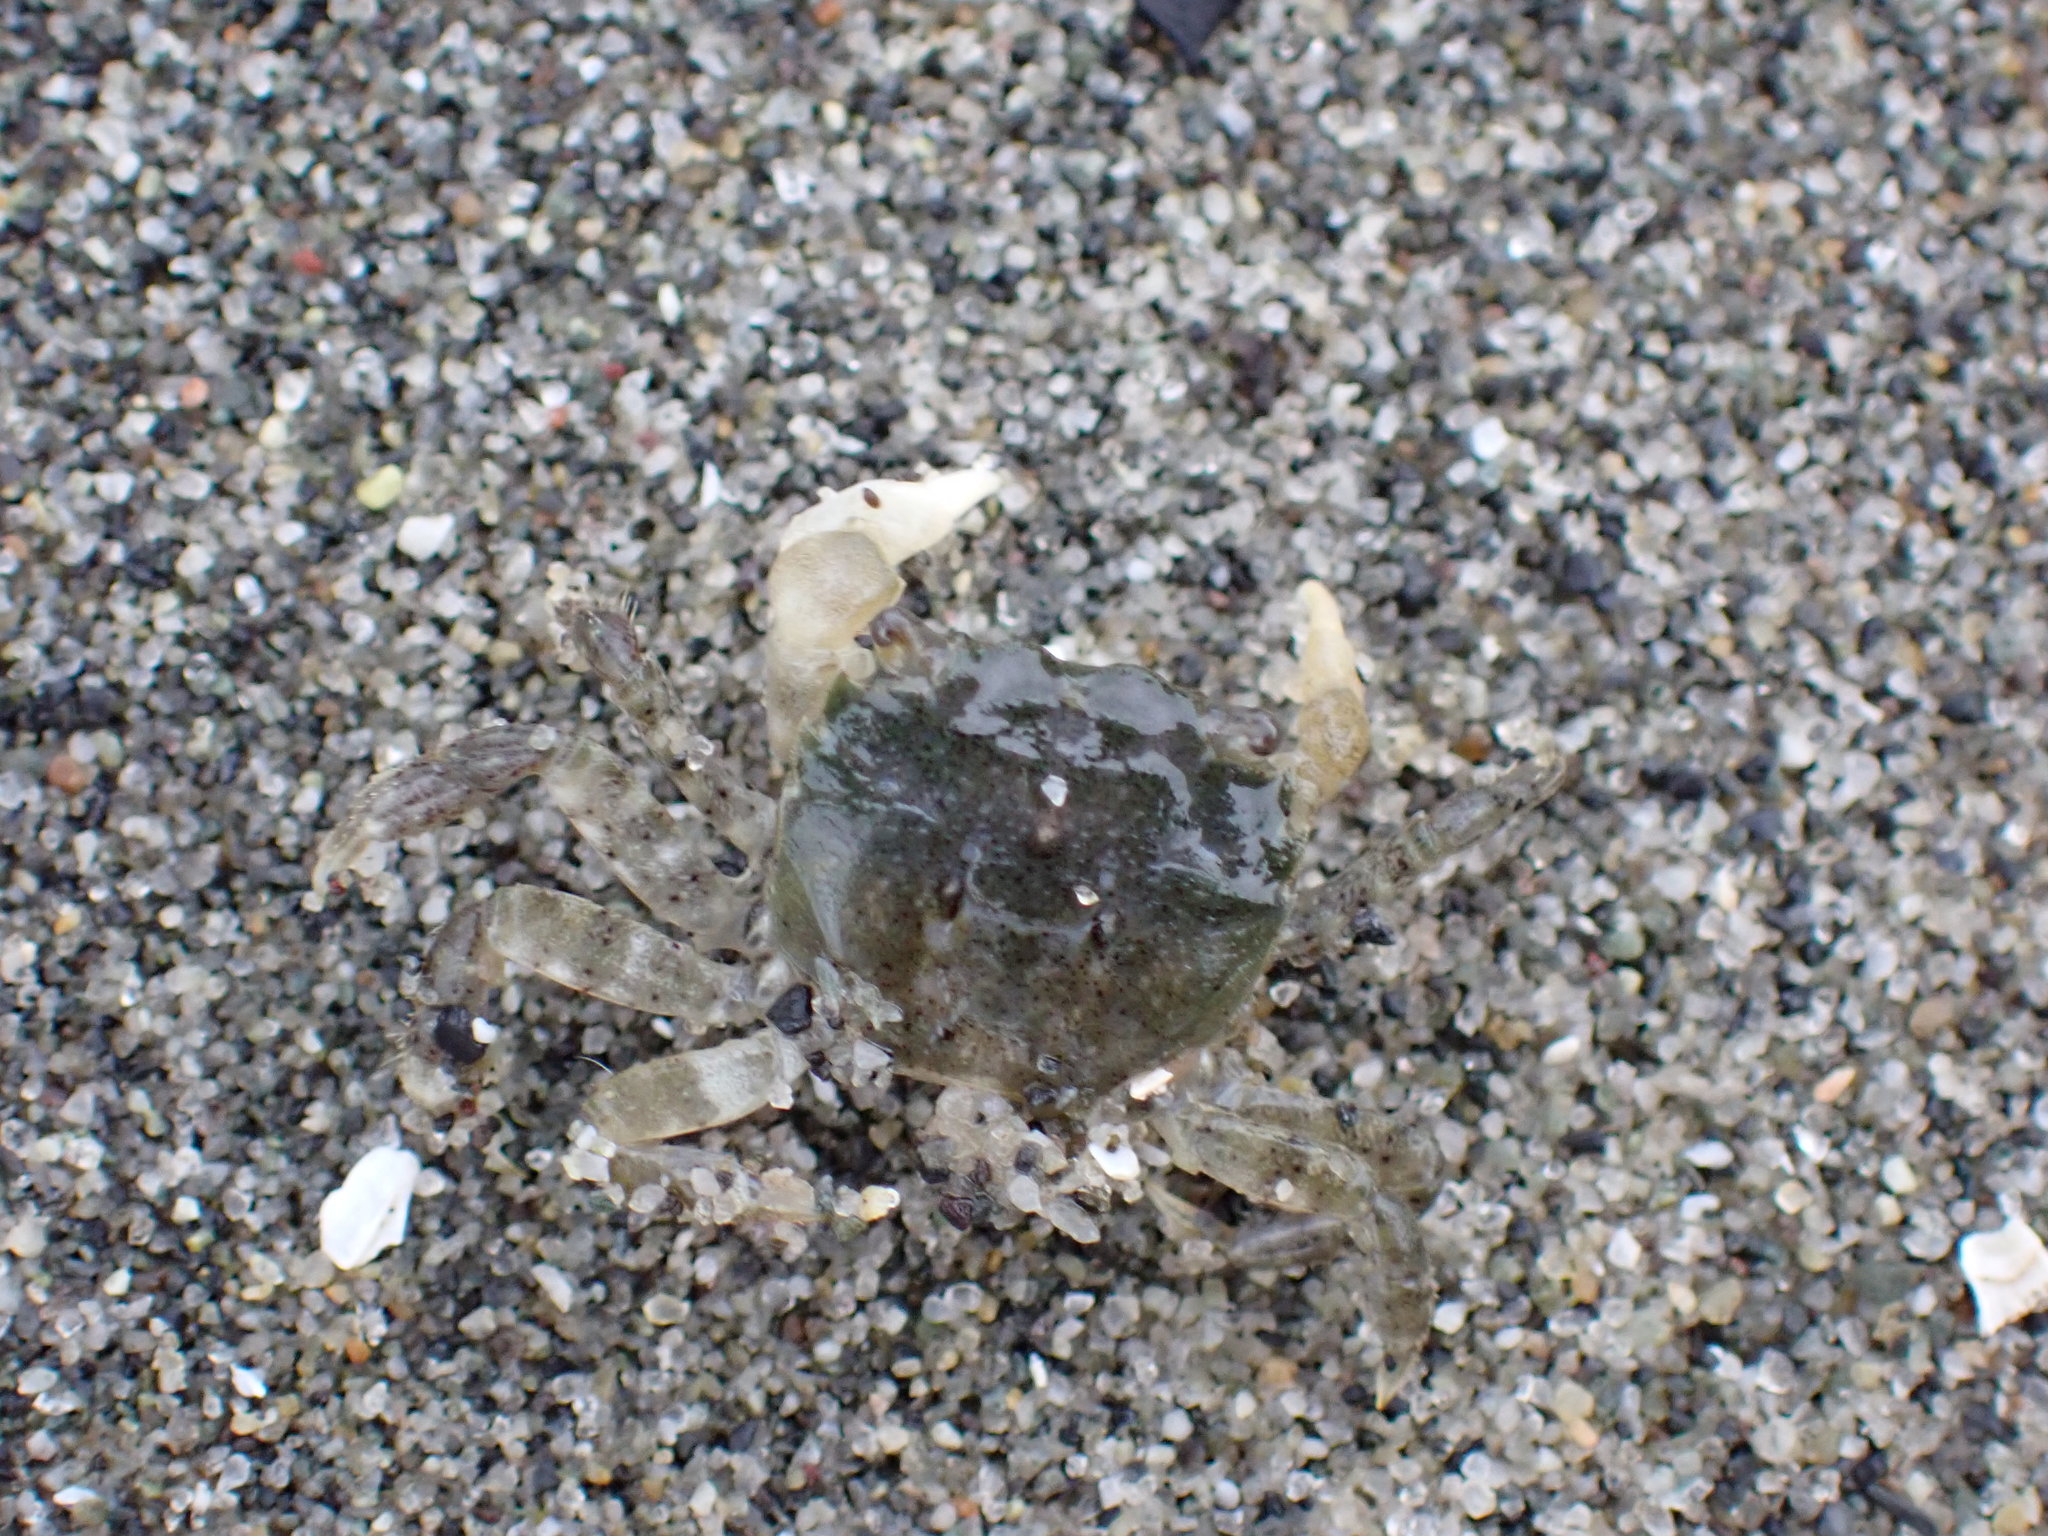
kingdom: Animalia
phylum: Arthropoda
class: Malacostraca
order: Decapoda
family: Varunidae
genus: Hemigrapsus
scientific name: Hemigrapsus oregonensis
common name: Yellow shore crab
